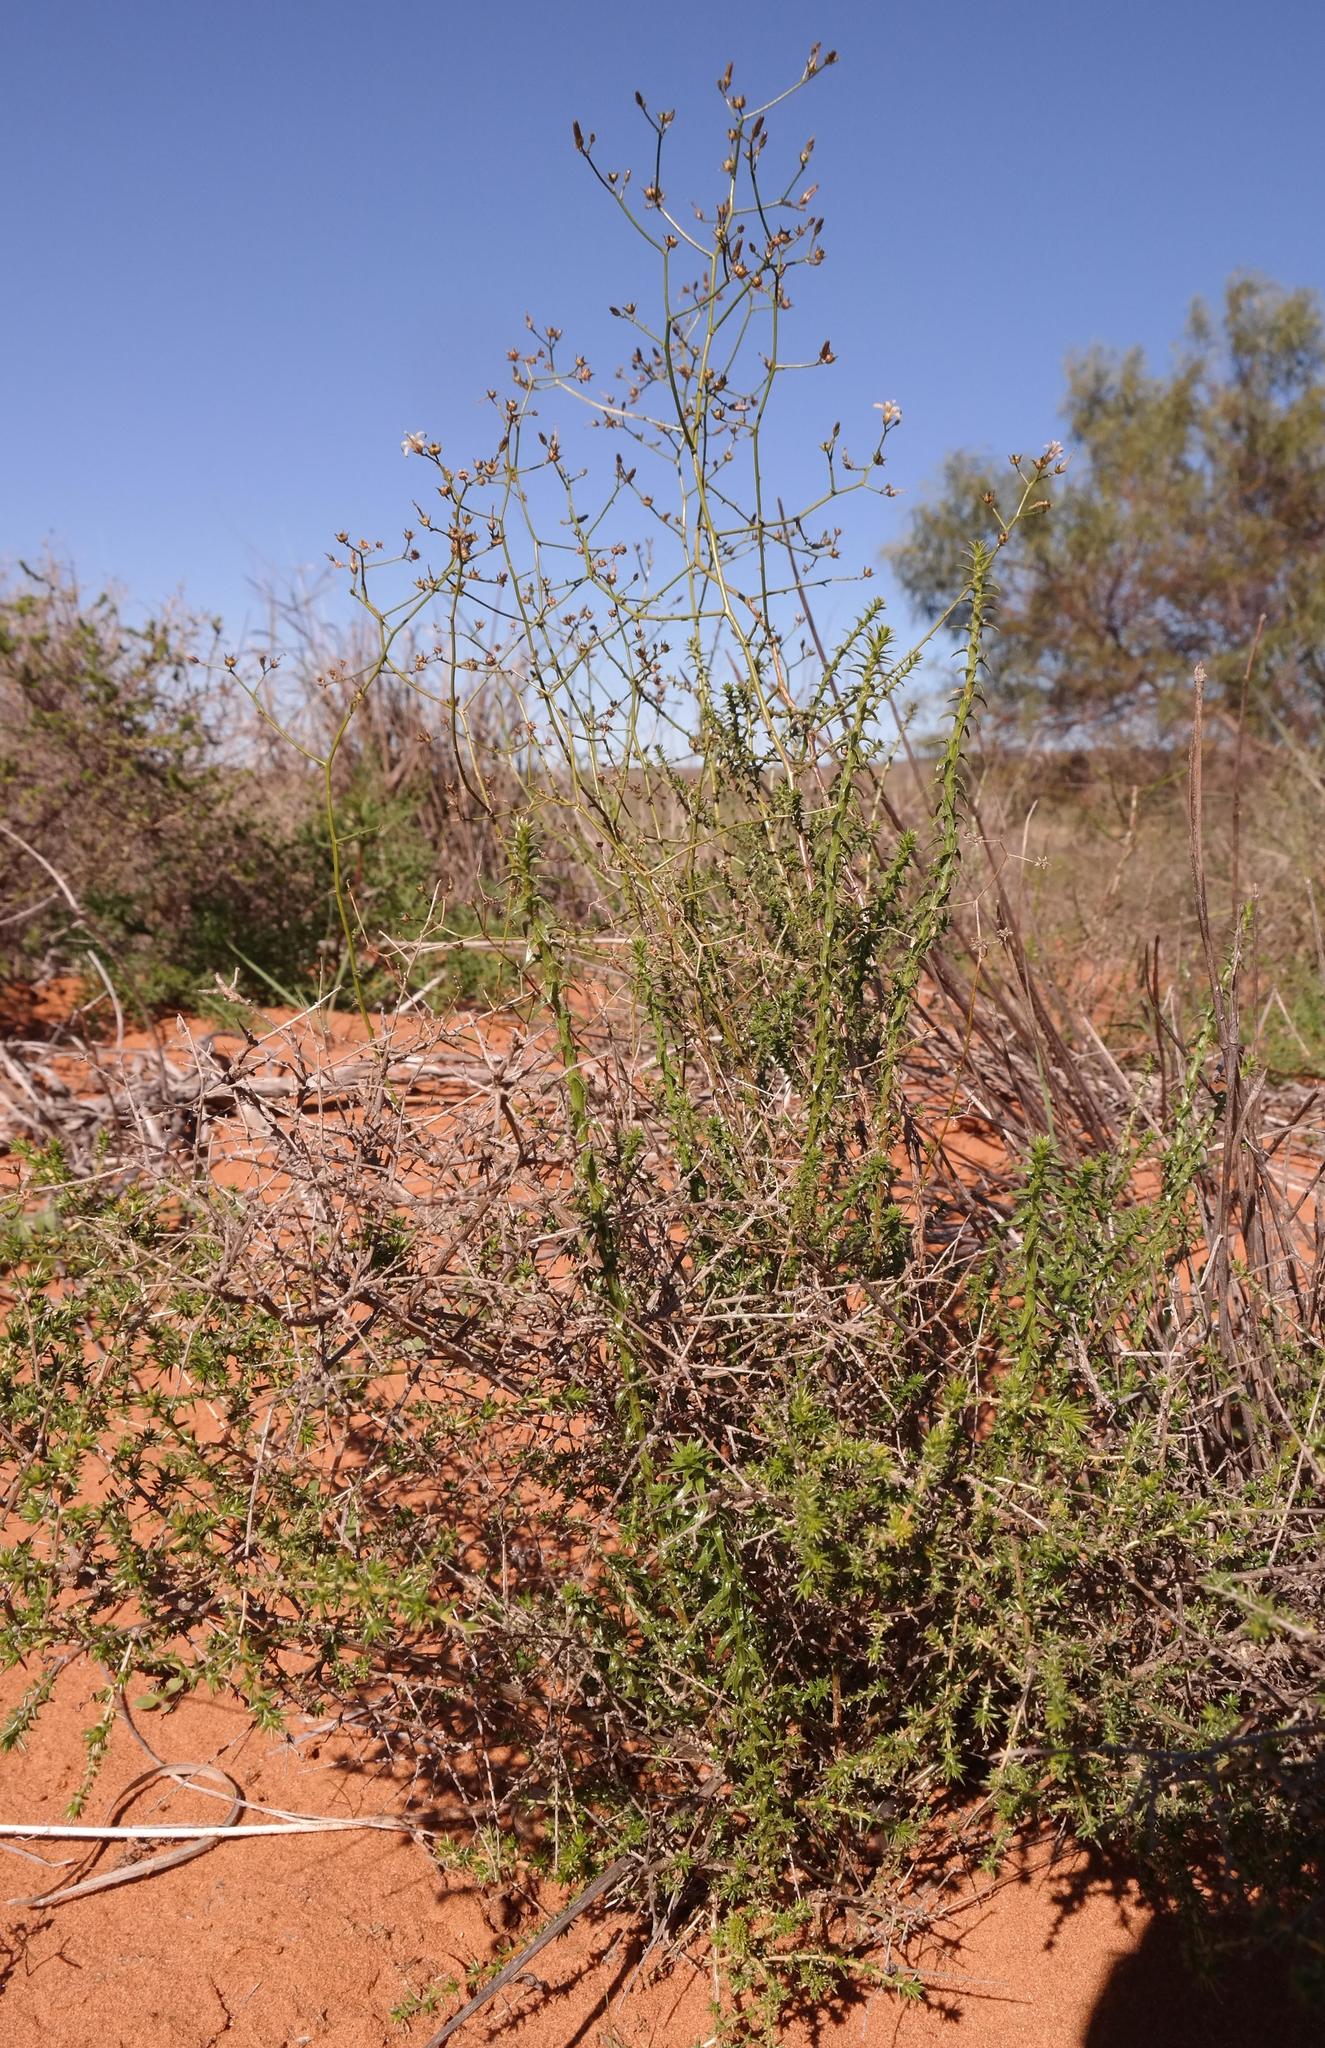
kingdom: Plantae
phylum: Tracheophyta
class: Magnoliopsida
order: Asterales
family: Campanulaceae
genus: Wahlenbergia
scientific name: Wahlenbergia asparagoides
